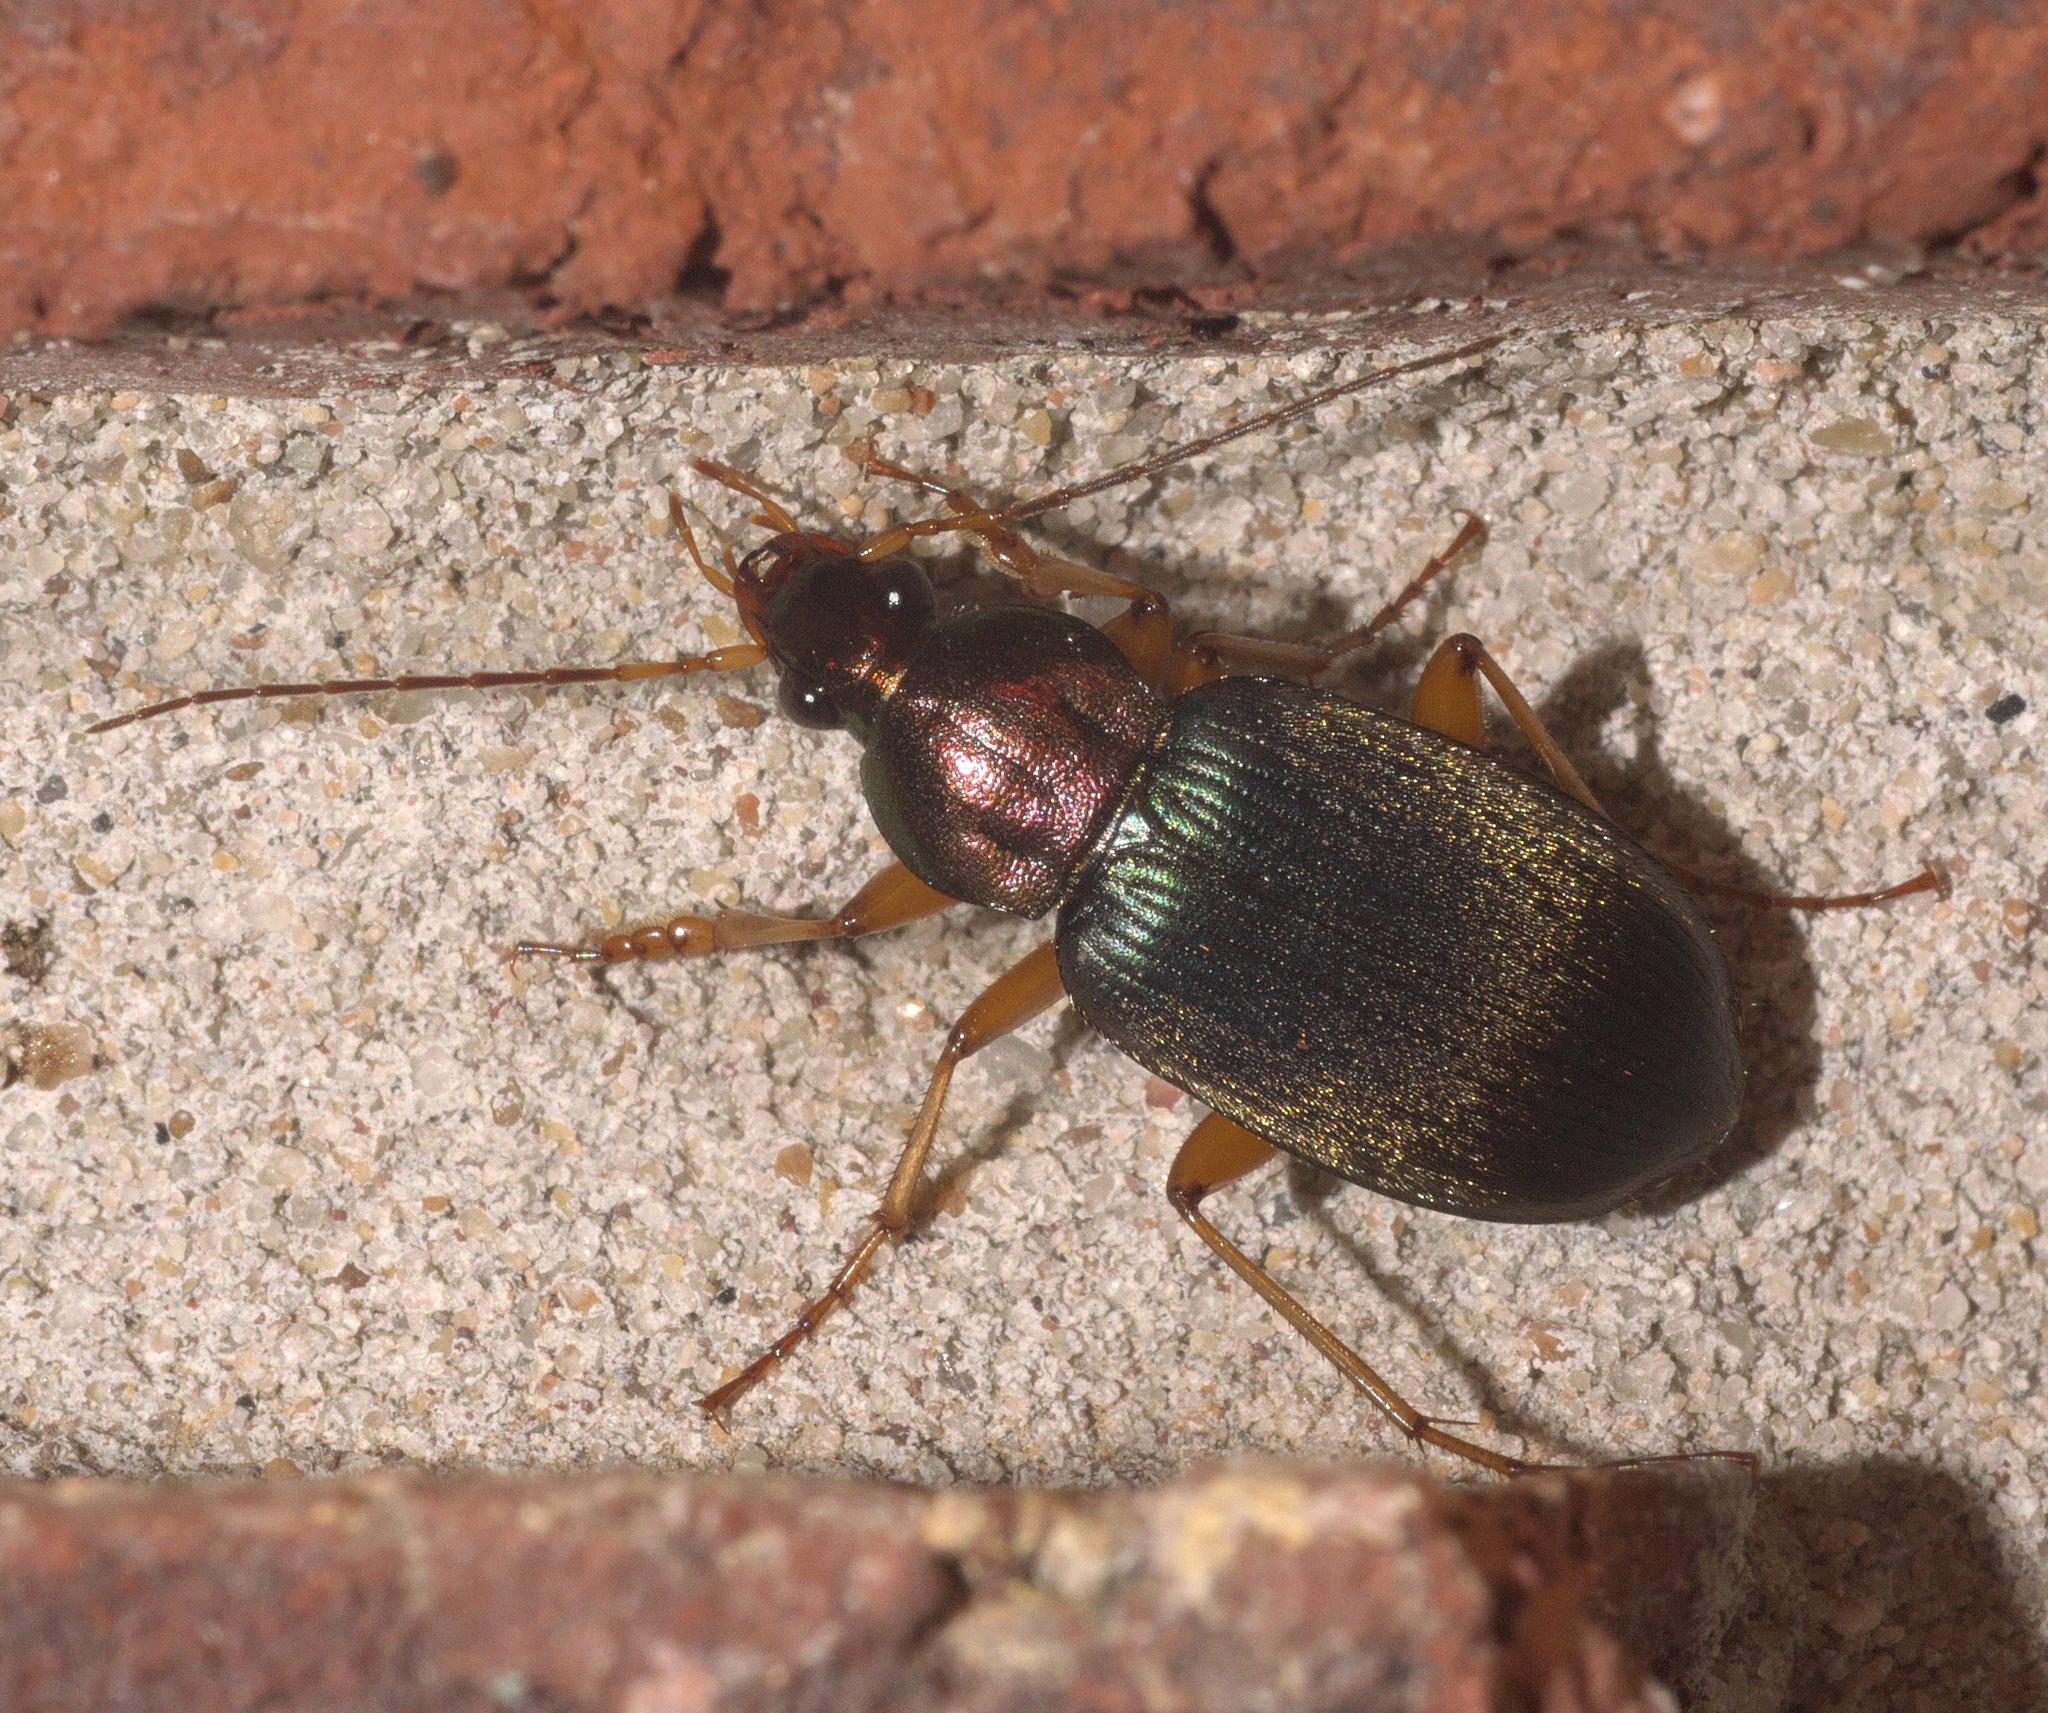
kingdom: Animalia
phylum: Arthropoda
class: Insecta
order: Coleoptera
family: Carabidae
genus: Chlaenius
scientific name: Chlaenius tricolor
